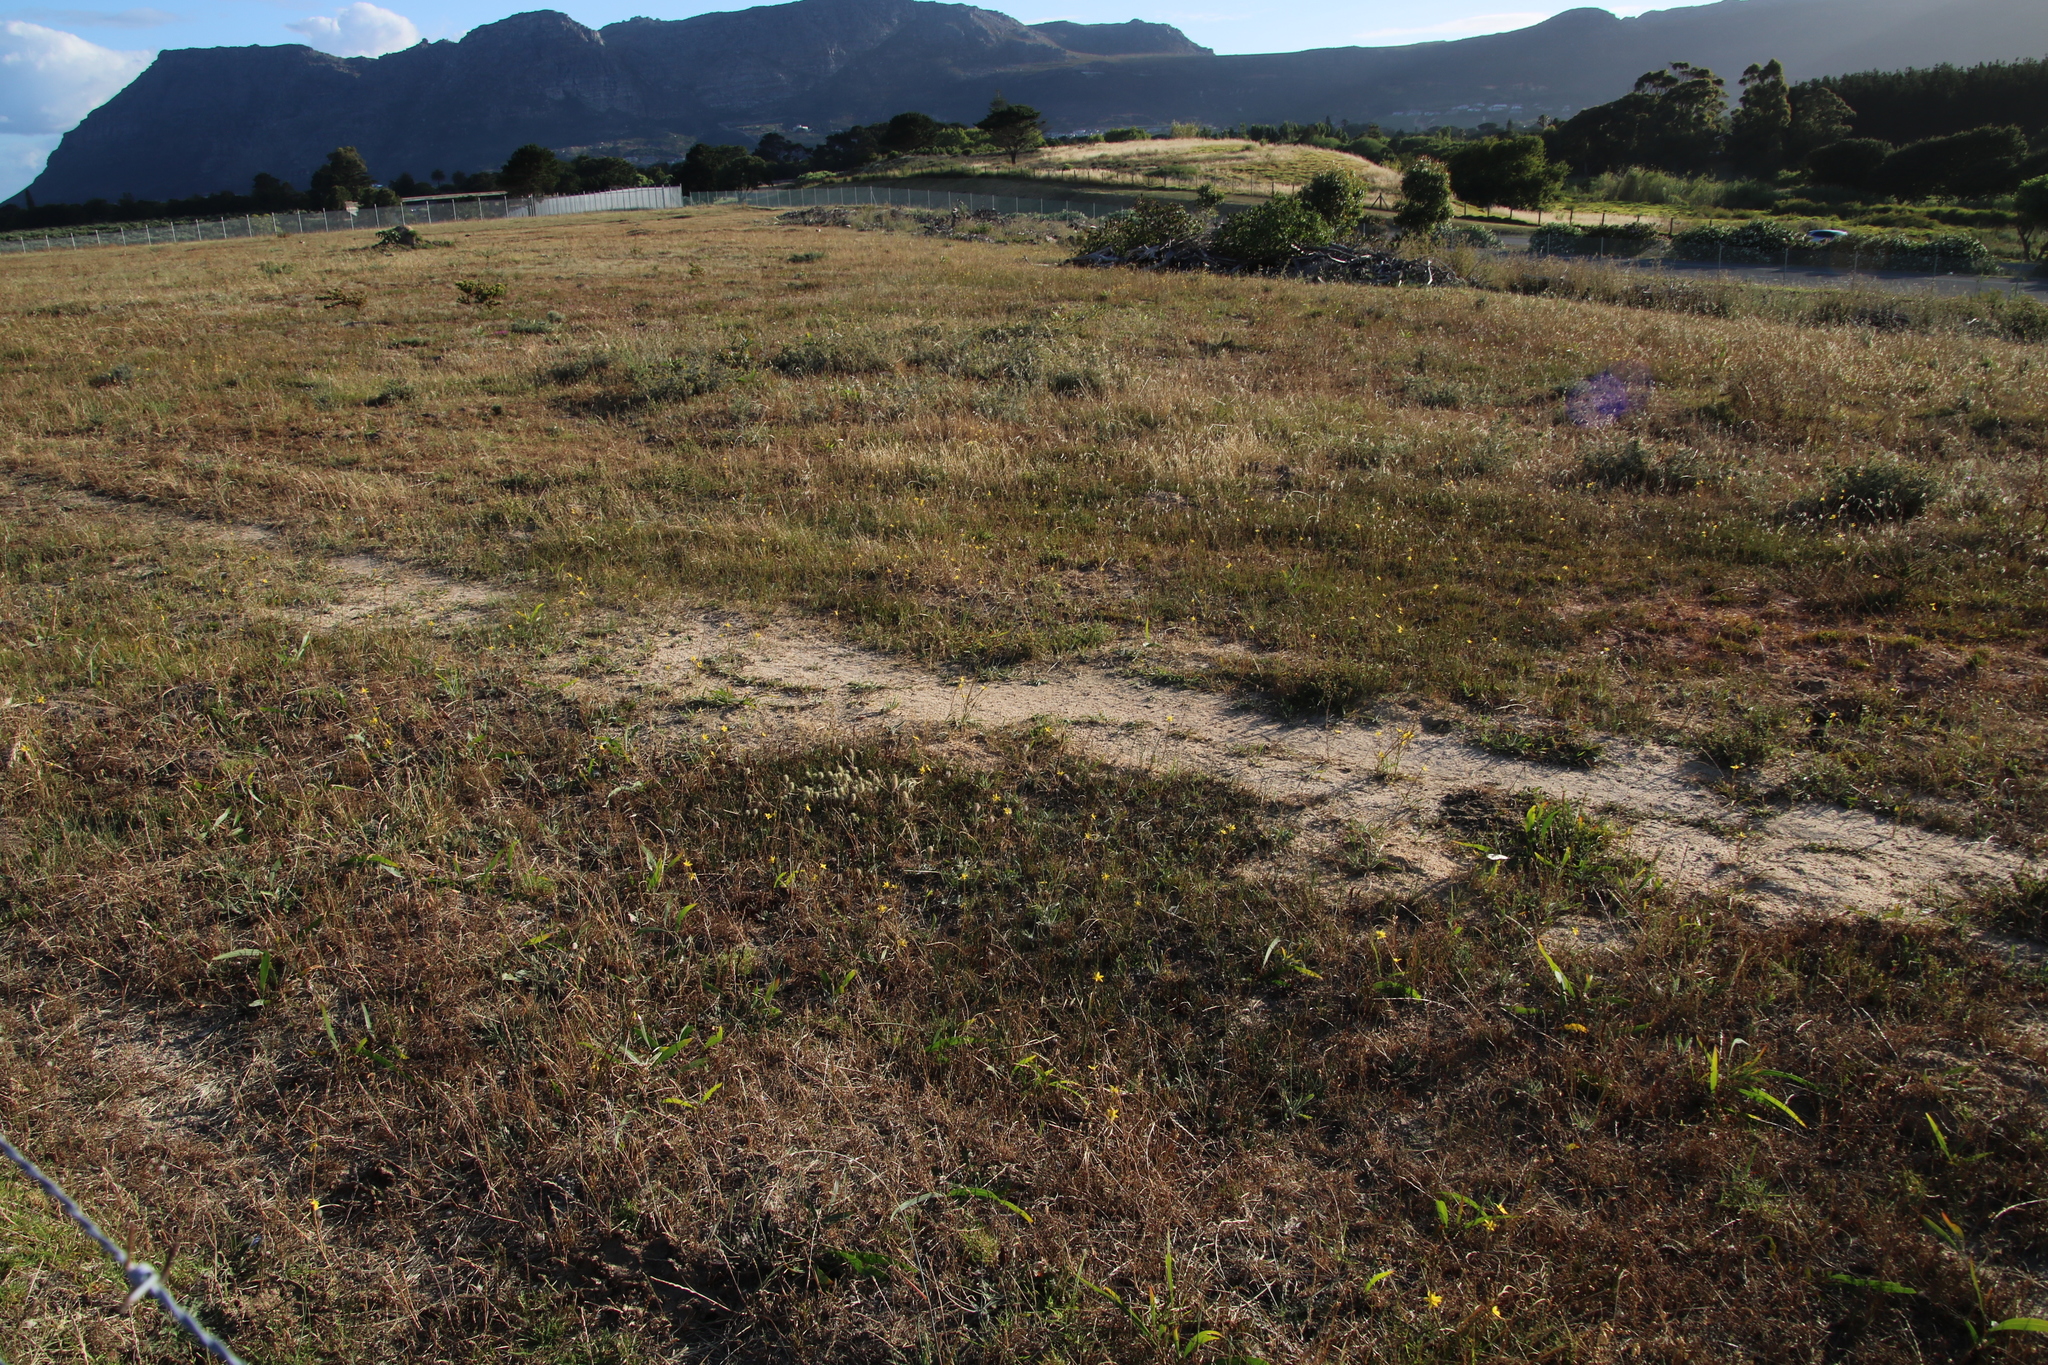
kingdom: Plantae
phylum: Tracheophyta
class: Liliopsida
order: Asparagales
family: Iridaceae
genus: Moraea
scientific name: Moraea lewisiae
